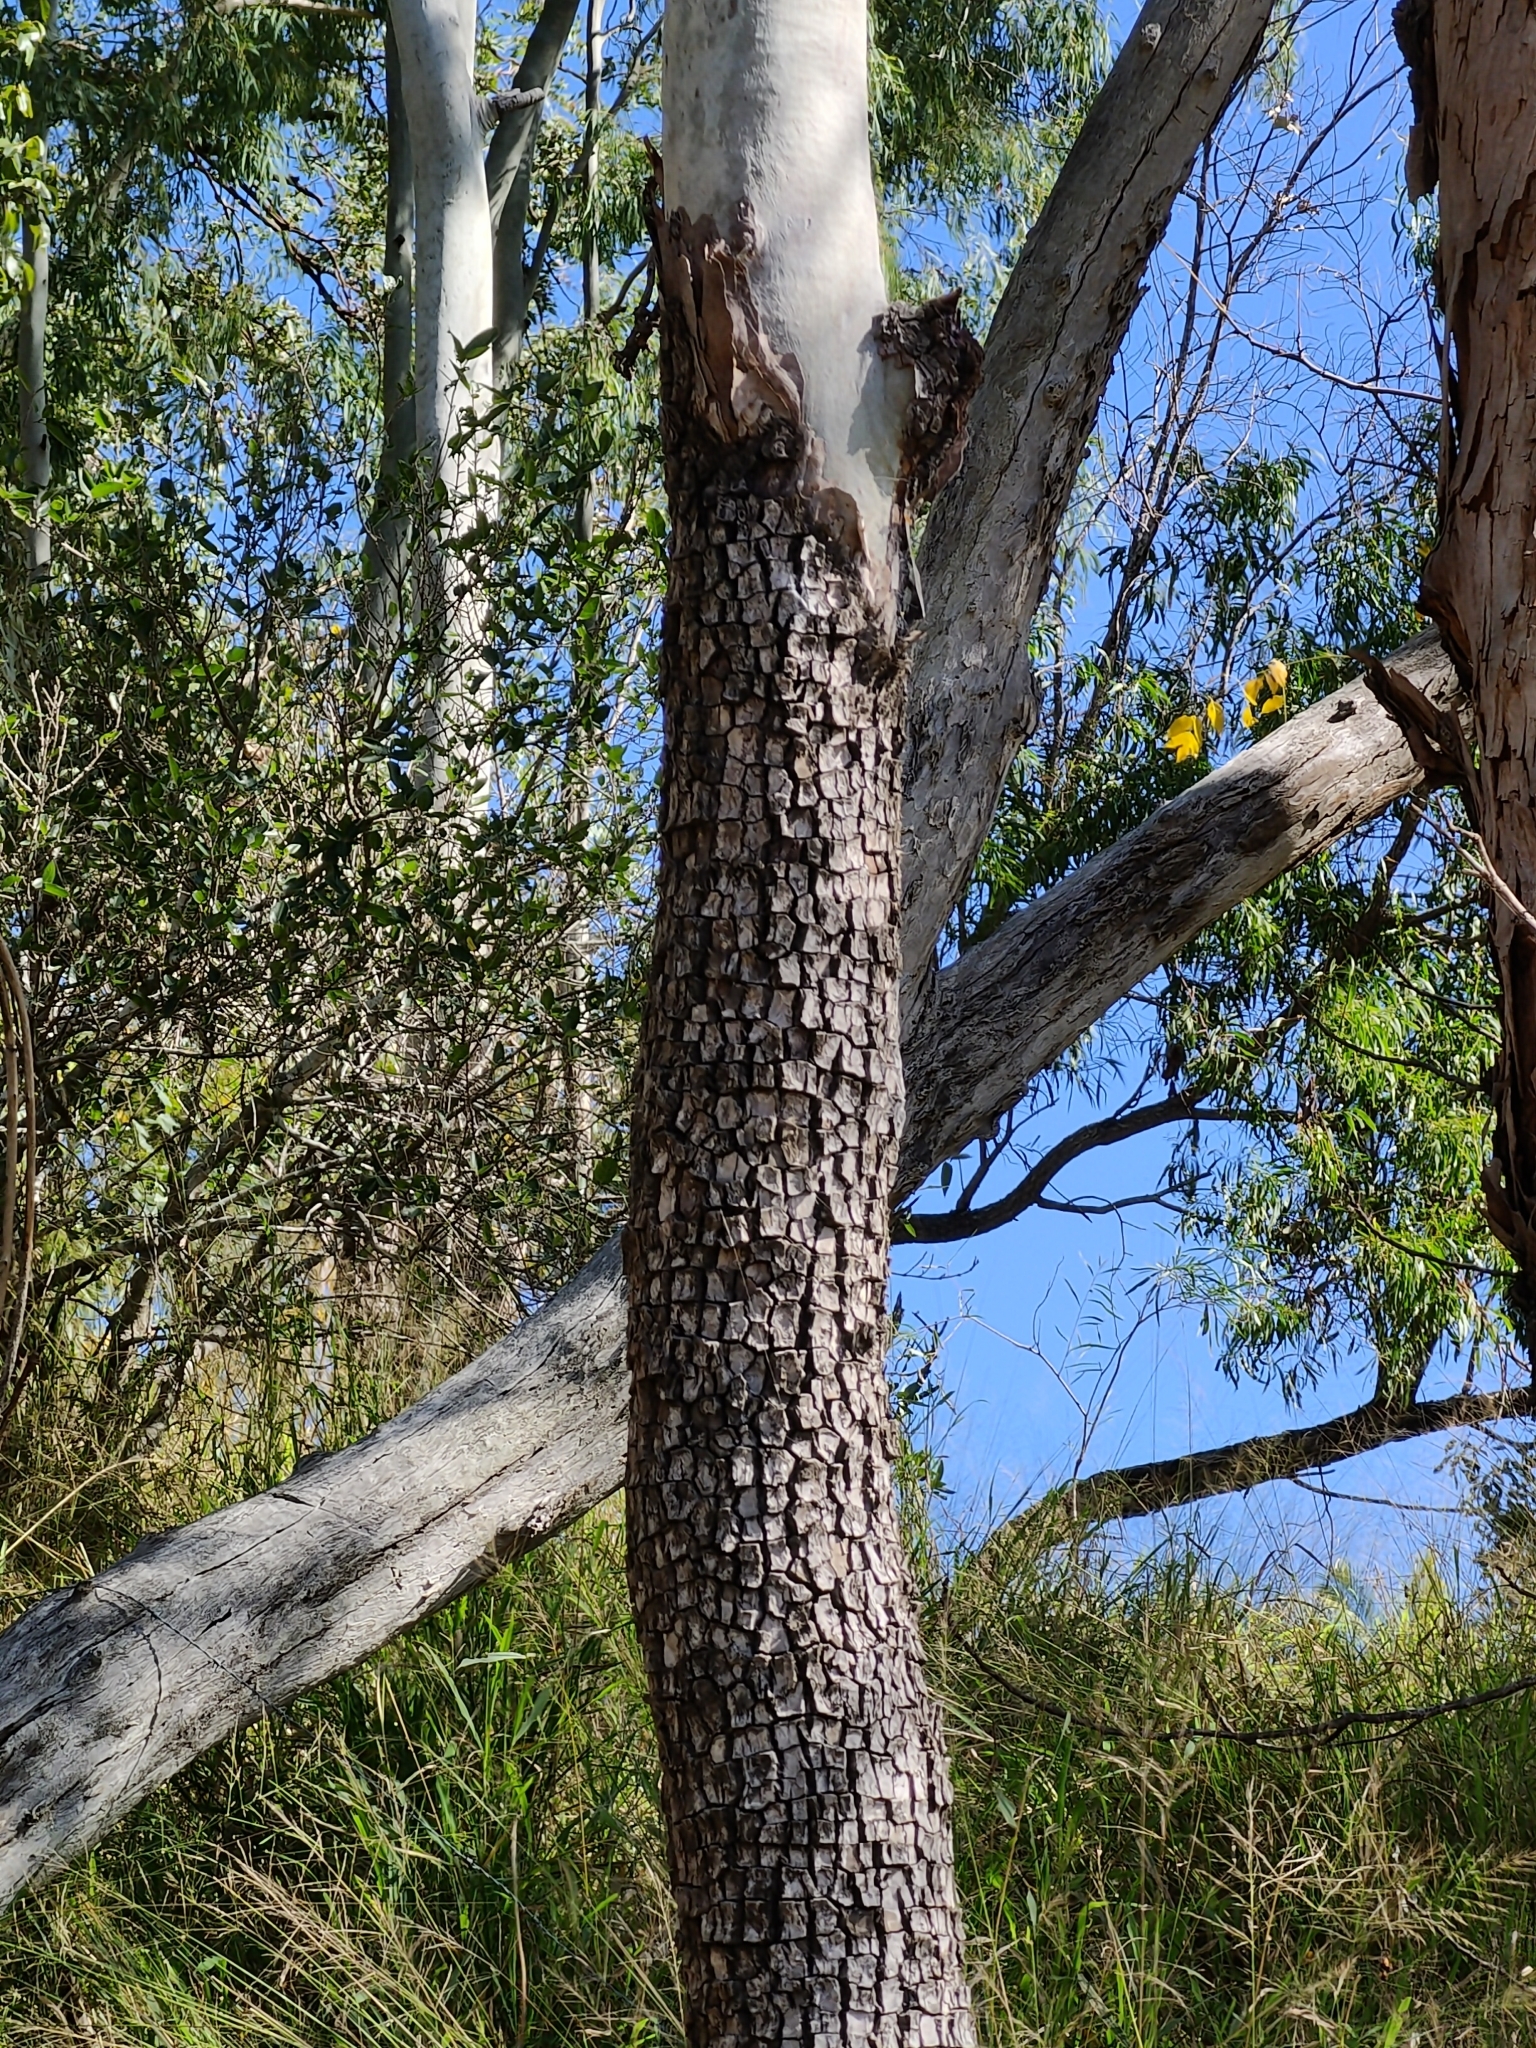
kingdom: Plantae
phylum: Tracheophyta
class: Magnoliopsida
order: Myrtales
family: Myrtaceae
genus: Corymbia
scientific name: Corymbia tessellaris
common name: Carbeen
